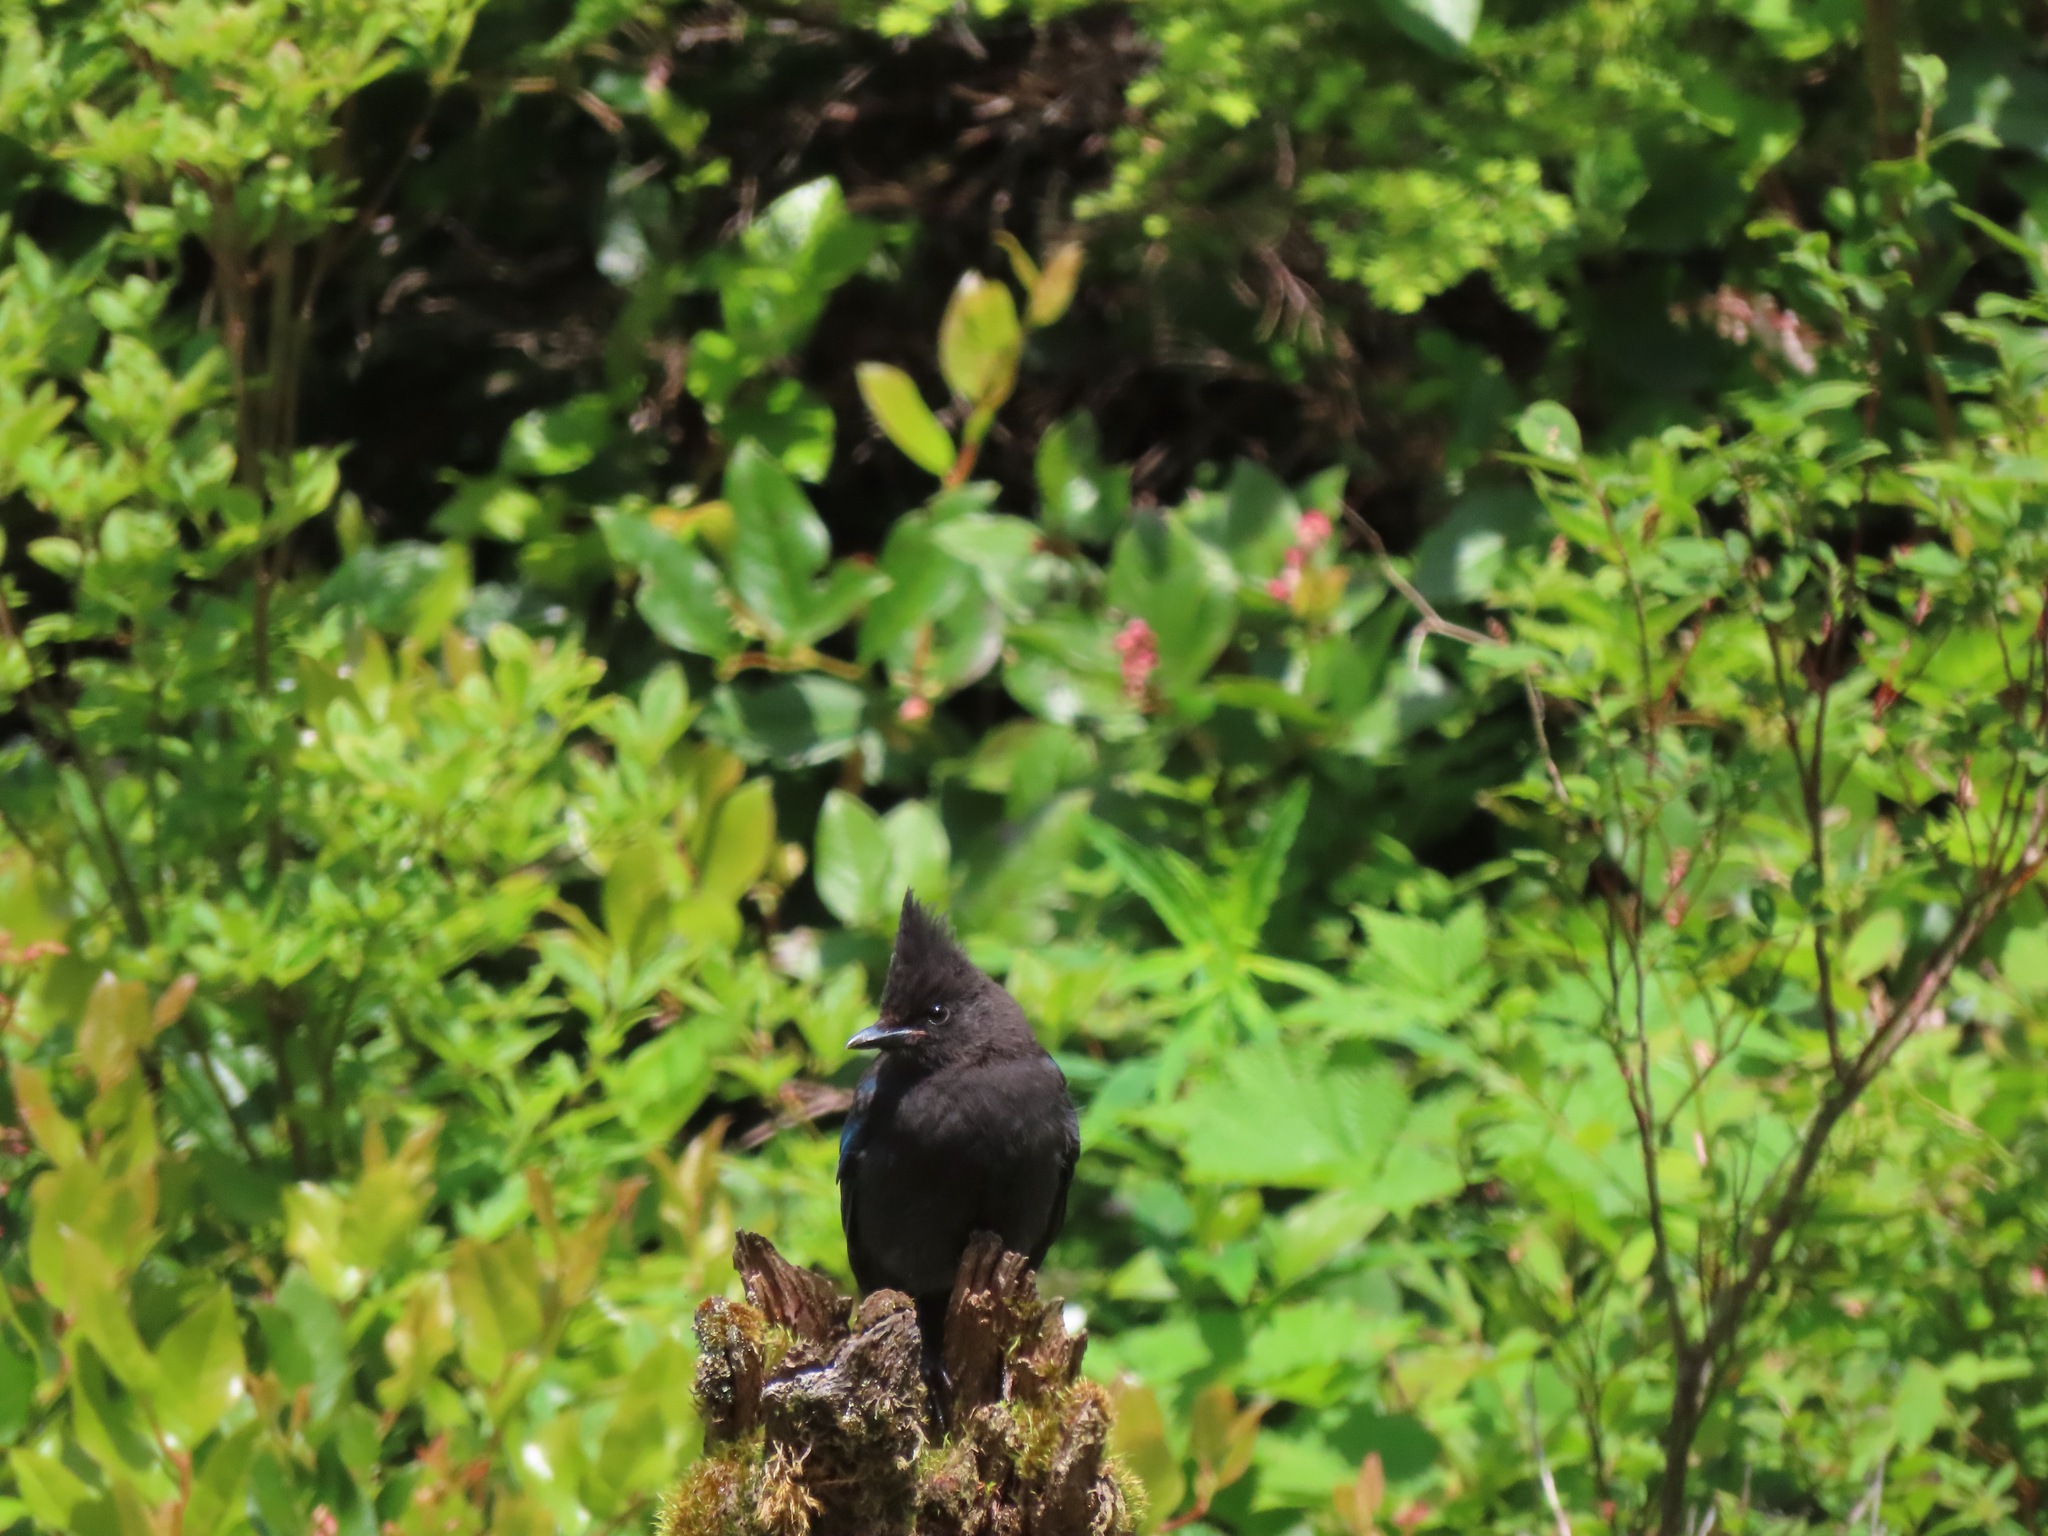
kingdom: Animalia
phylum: Chordata
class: Aves
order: Passeriformes
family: Corvidae
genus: Cyanocitta
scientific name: Cyanocitta stelleri
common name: Steller's jay
